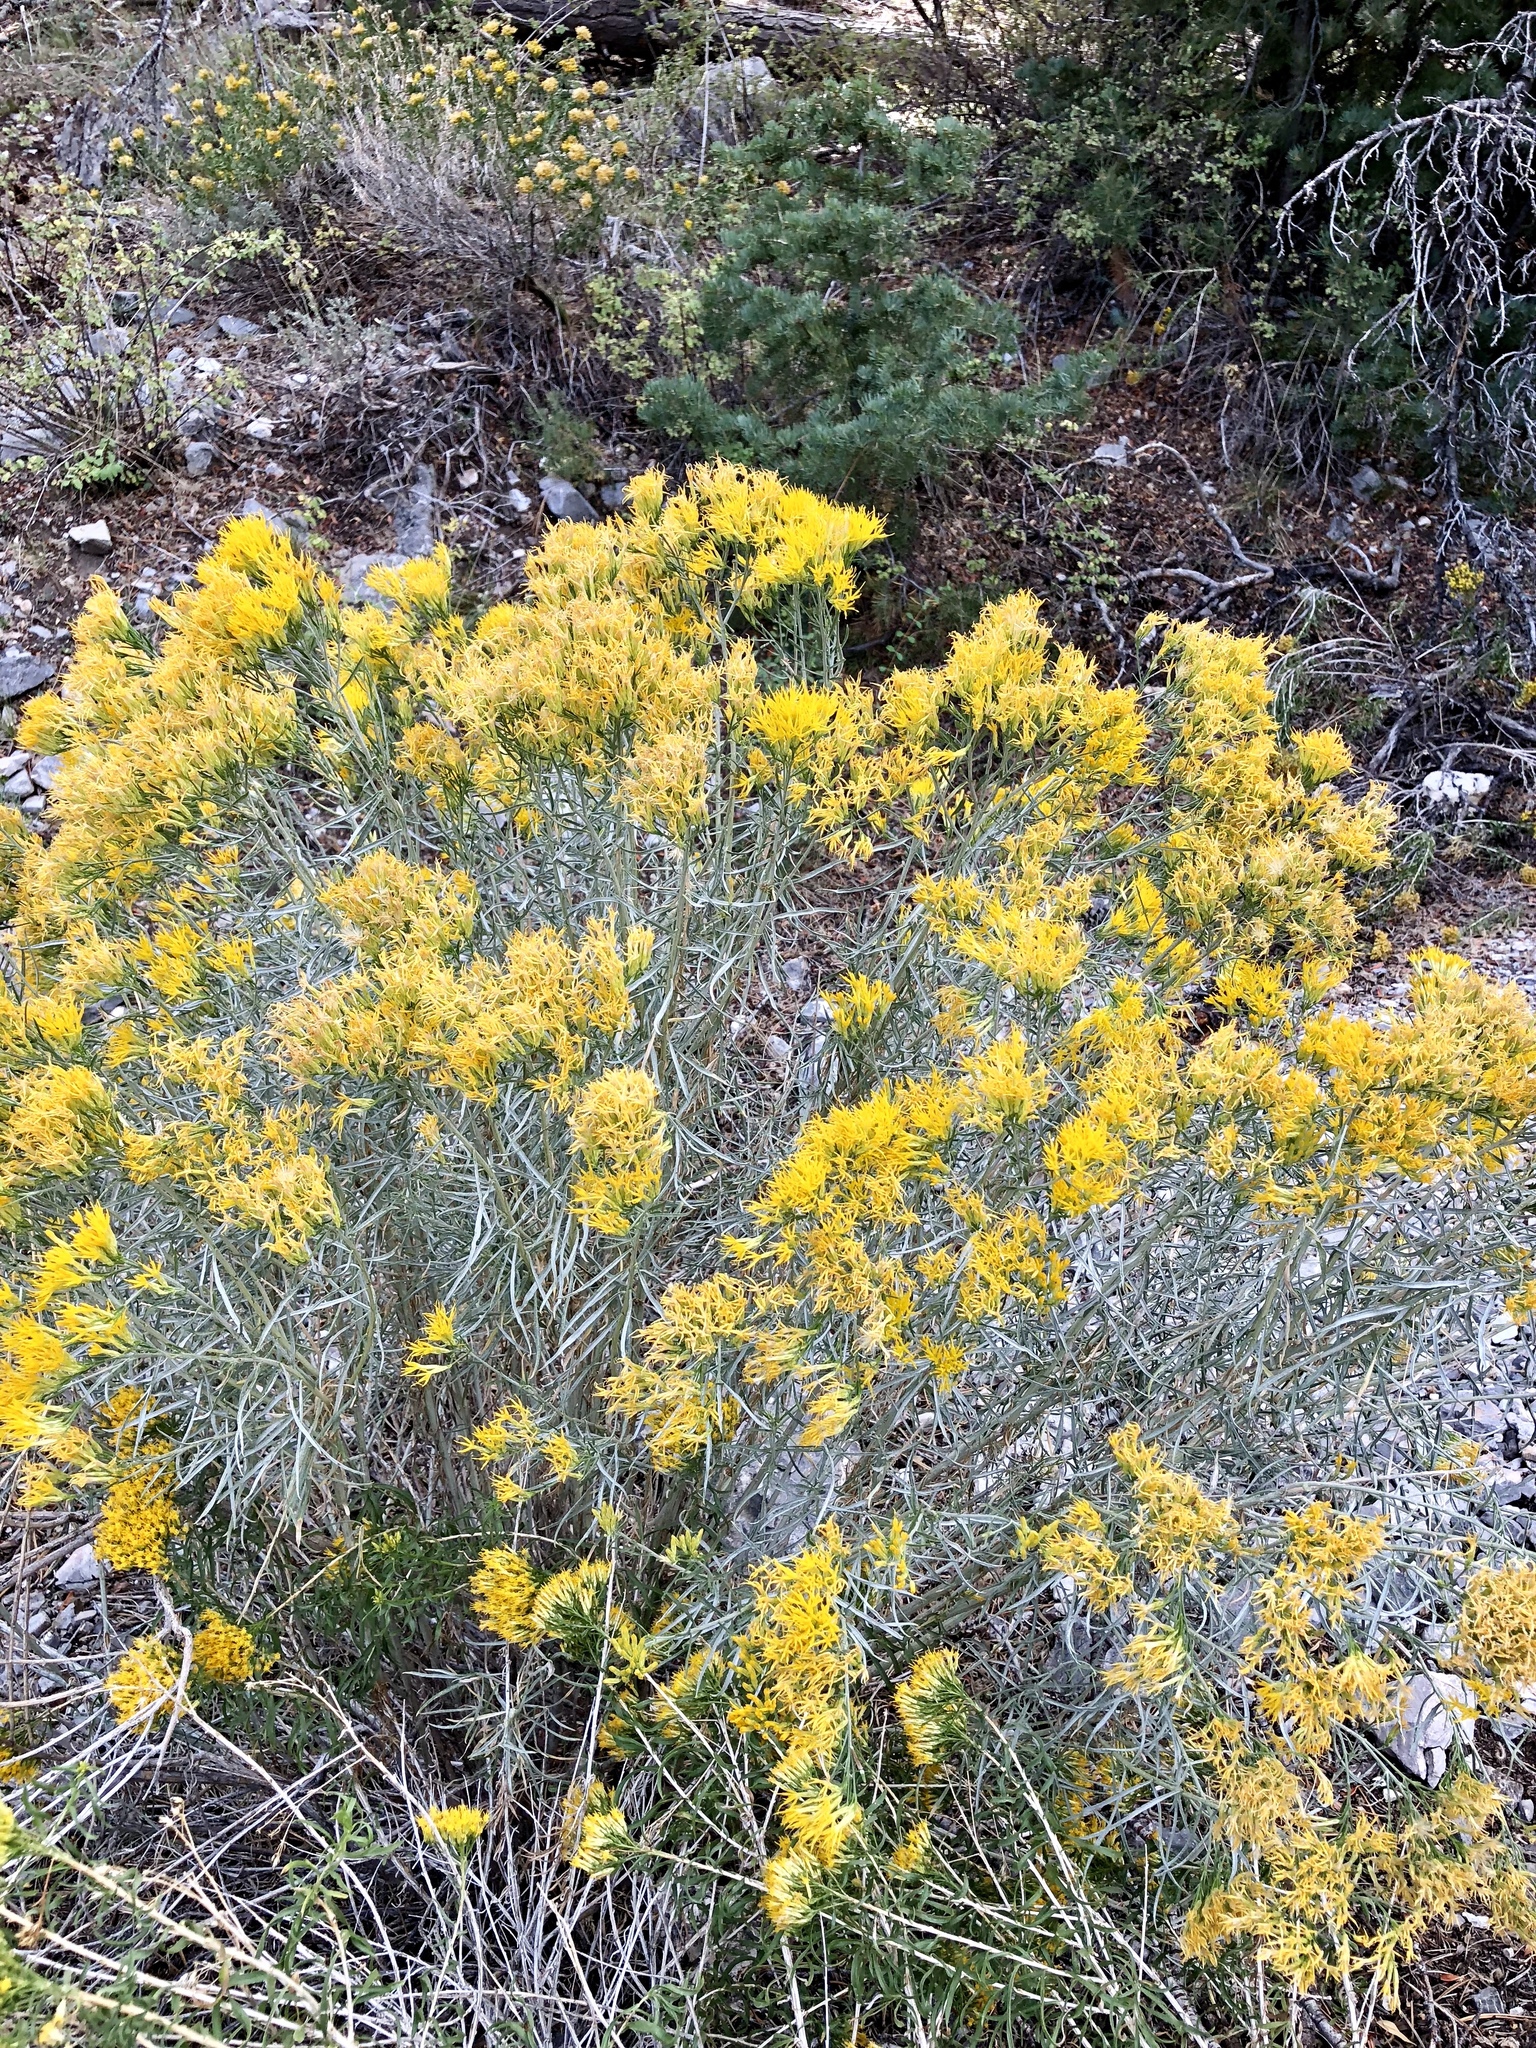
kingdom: Plantae
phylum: Tracheophyta
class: Magnoliopsida
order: Asterales
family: Asteraceae
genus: Ericameria
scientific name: Ericameria nauseosa
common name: Rubber rabbitbrush
